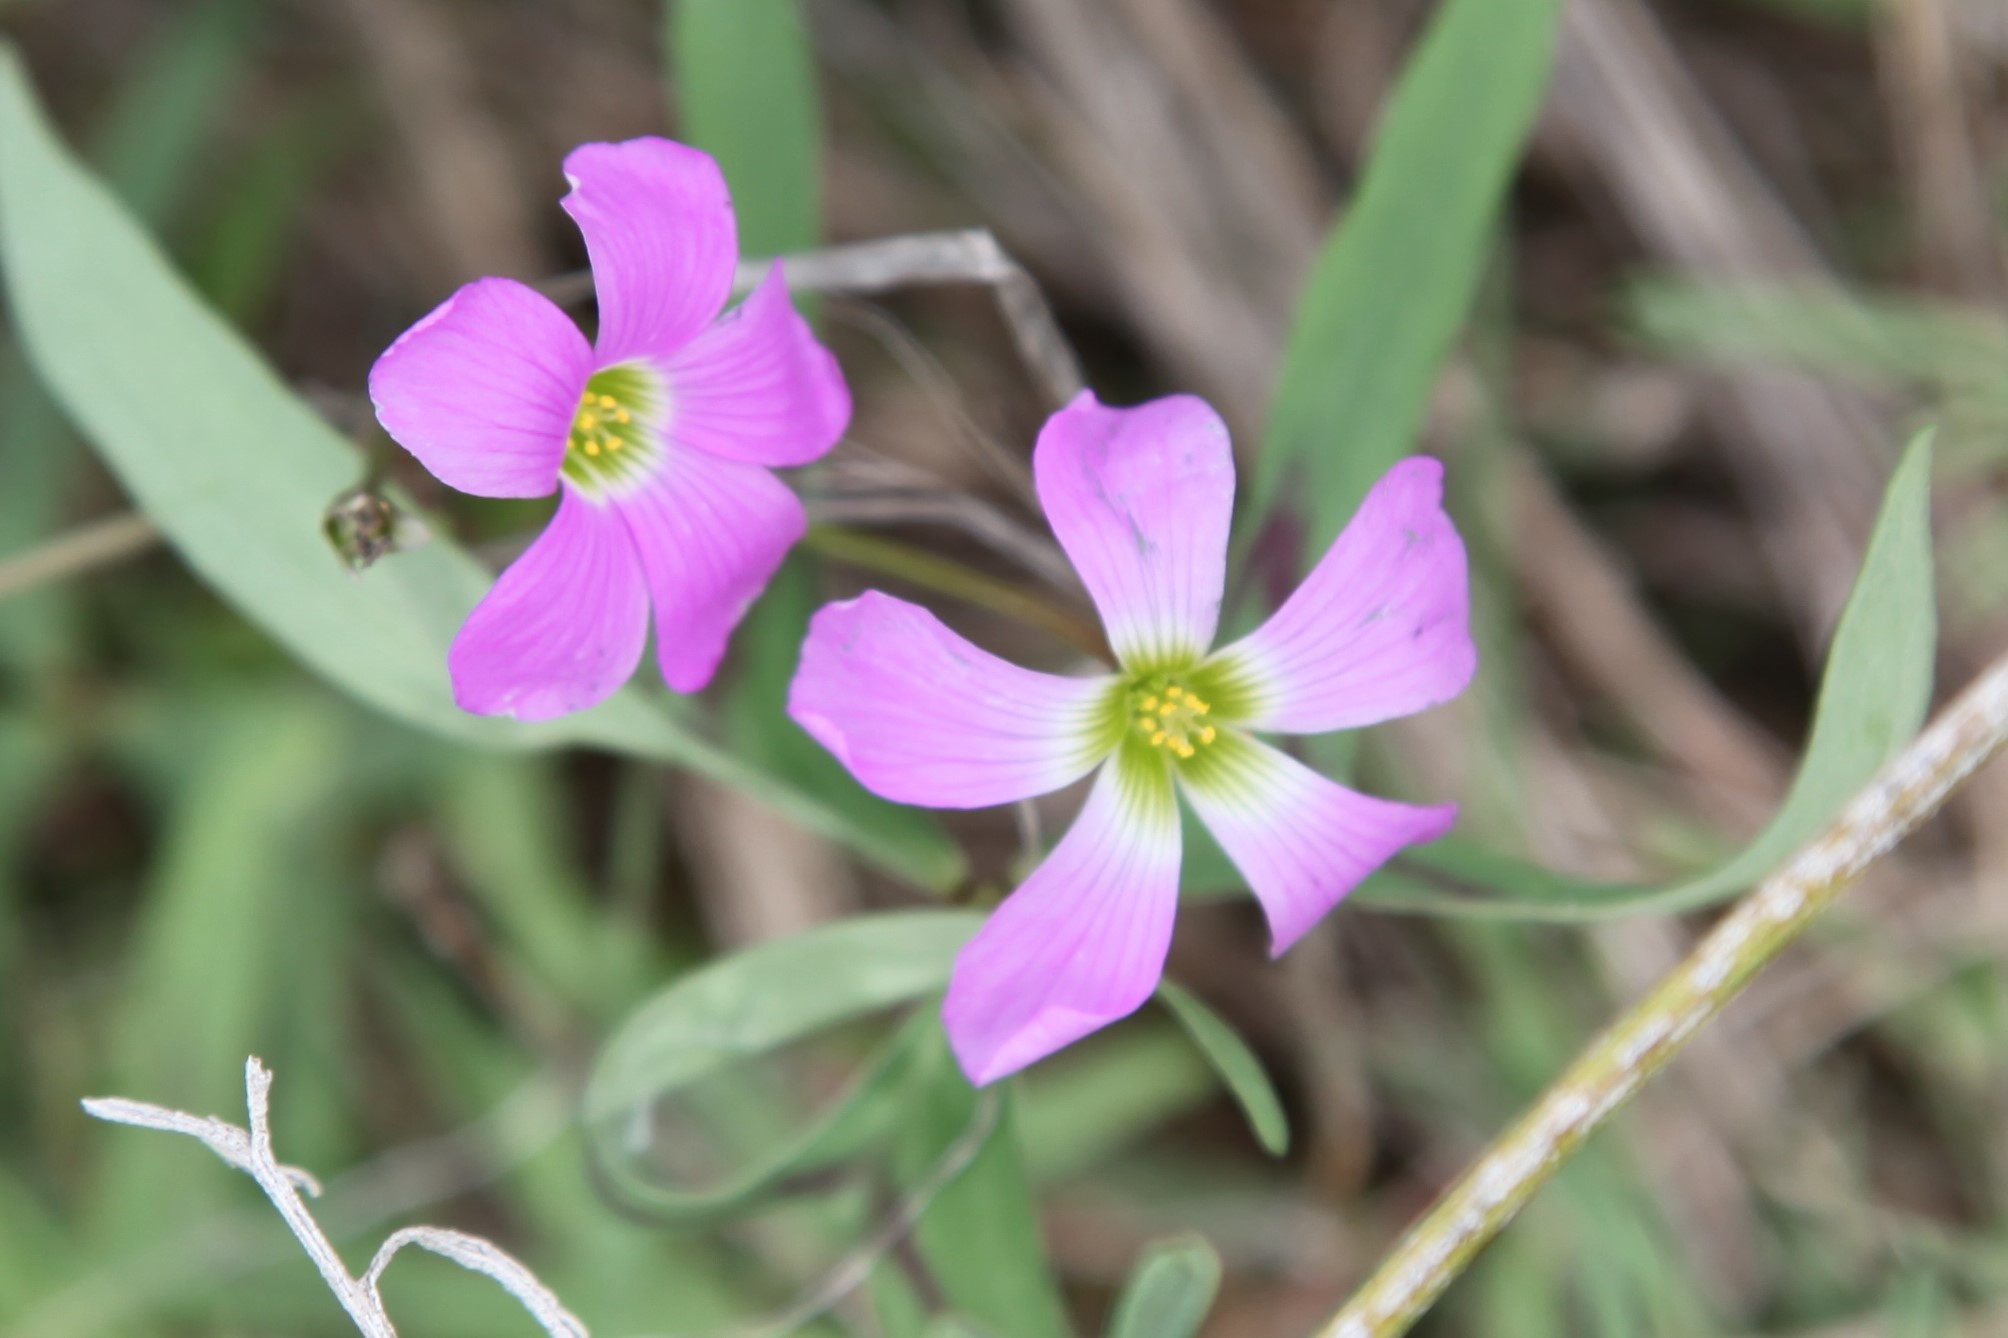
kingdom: Plantae
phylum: Tracheophyta
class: Magnoliopsida
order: Oxalidales
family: Oxalidaceae
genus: Oxalis
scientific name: Oxalis drummondii
